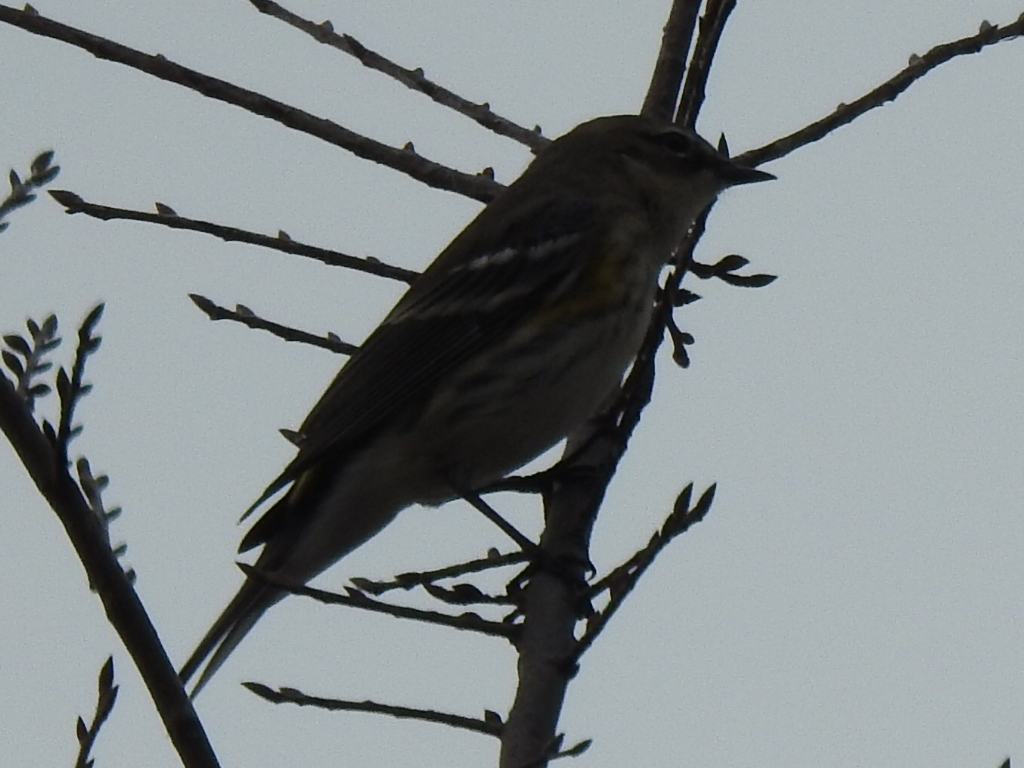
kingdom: Animalia
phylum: Chordata
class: Aves
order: Passeriformes
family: Parulidae
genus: Setophaga
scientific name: Setophaga coronata
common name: Myrtle warbler
